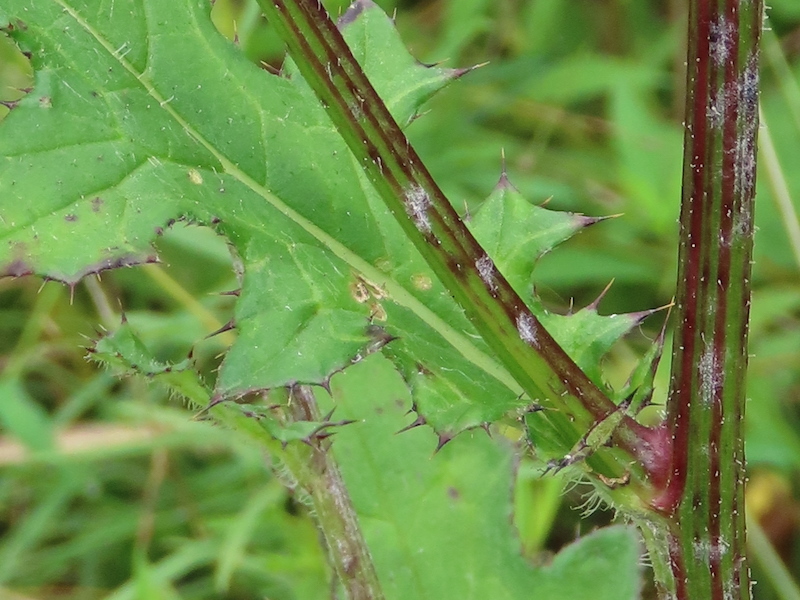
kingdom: Plantae
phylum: Tracheophyta
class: Magnoliopsida
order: Asterales
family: Asteraceae
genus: Cirsium
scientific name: Cirsium muticum
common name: Dunce-nettle
